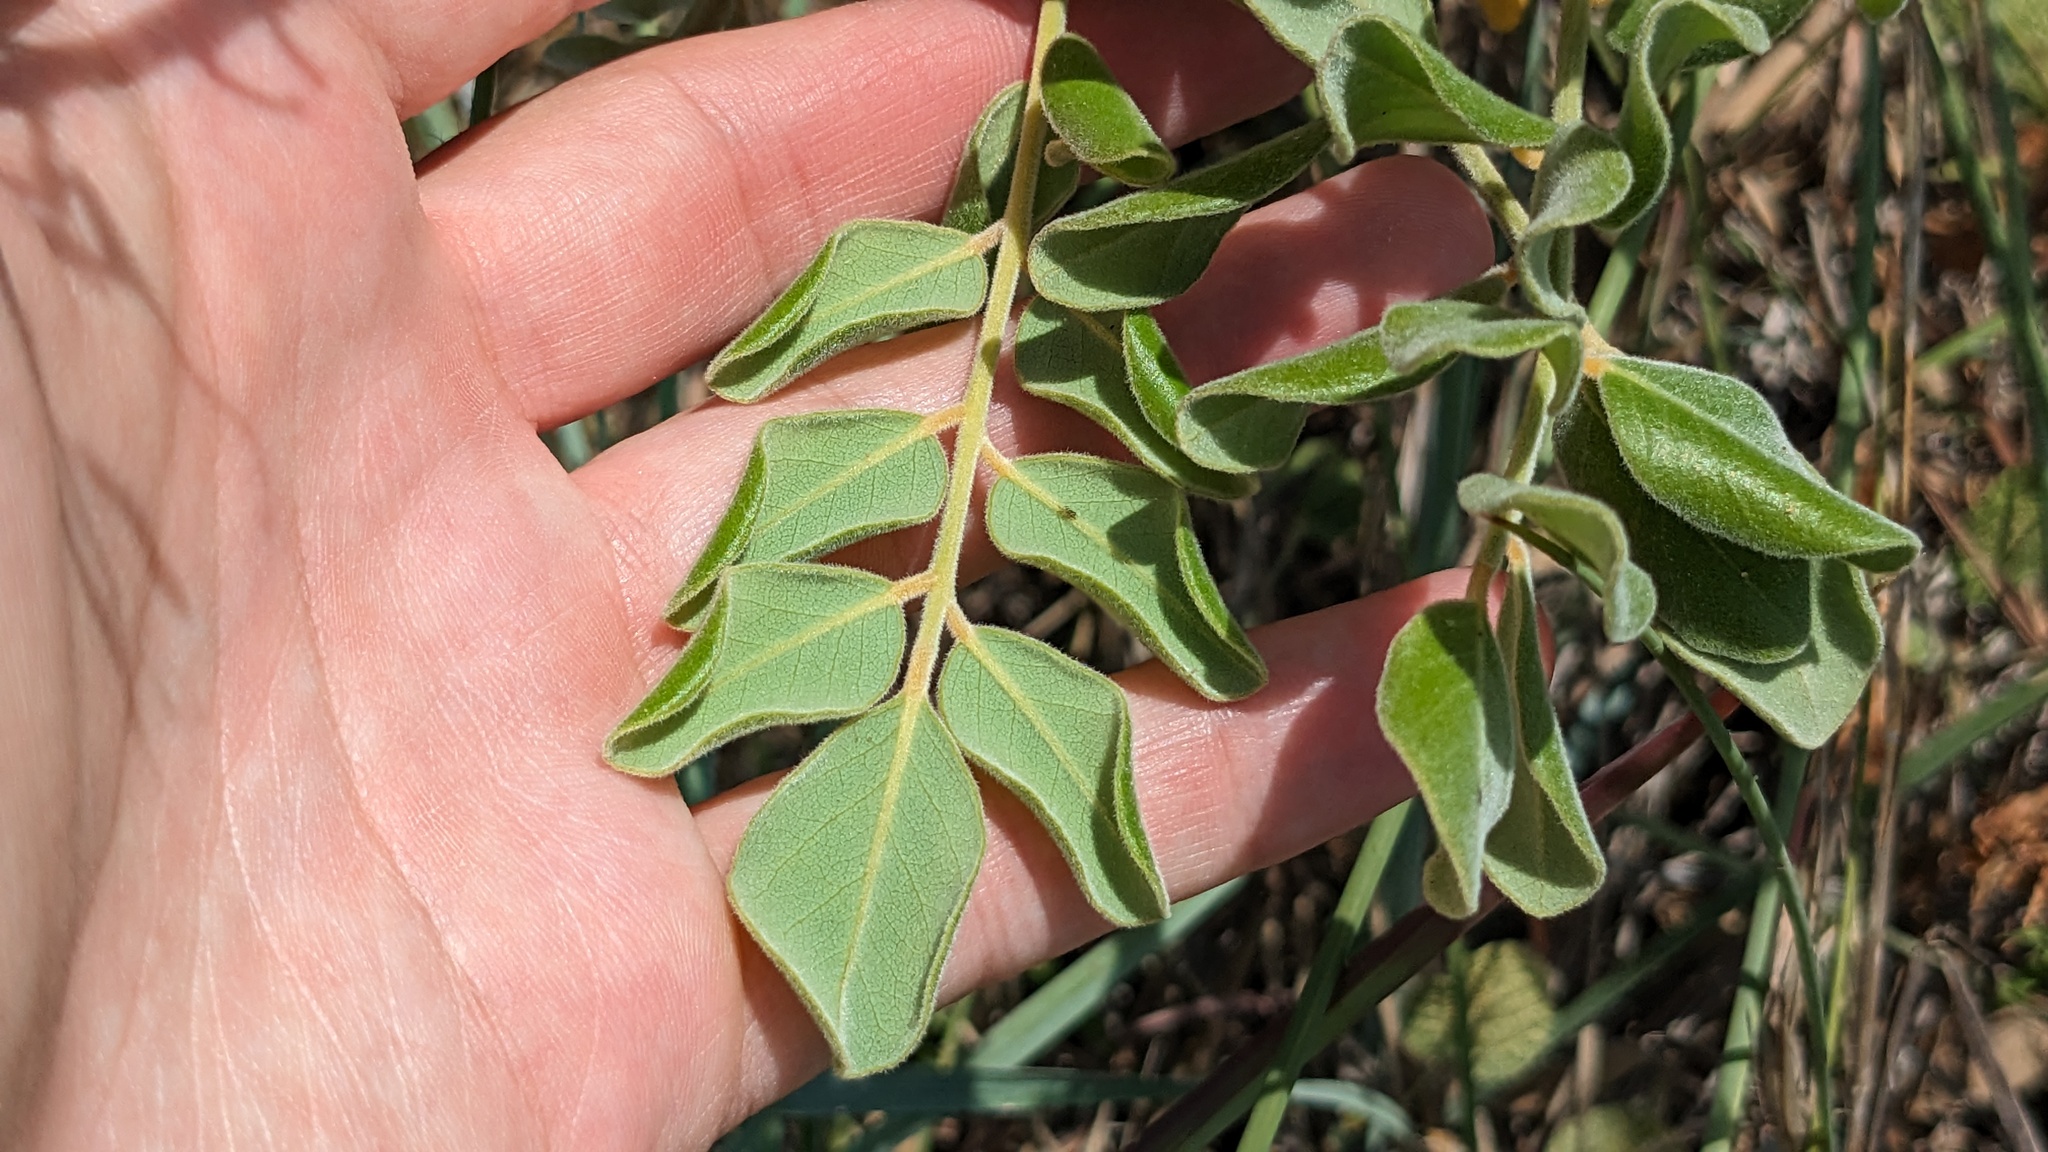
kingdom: Plantae
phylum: Tracheophyta
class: Magnoliopsida
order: Fabales
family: Fabaceae
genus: Sophora
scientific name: Sophora tomentosa
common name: Yellow necklacepod
